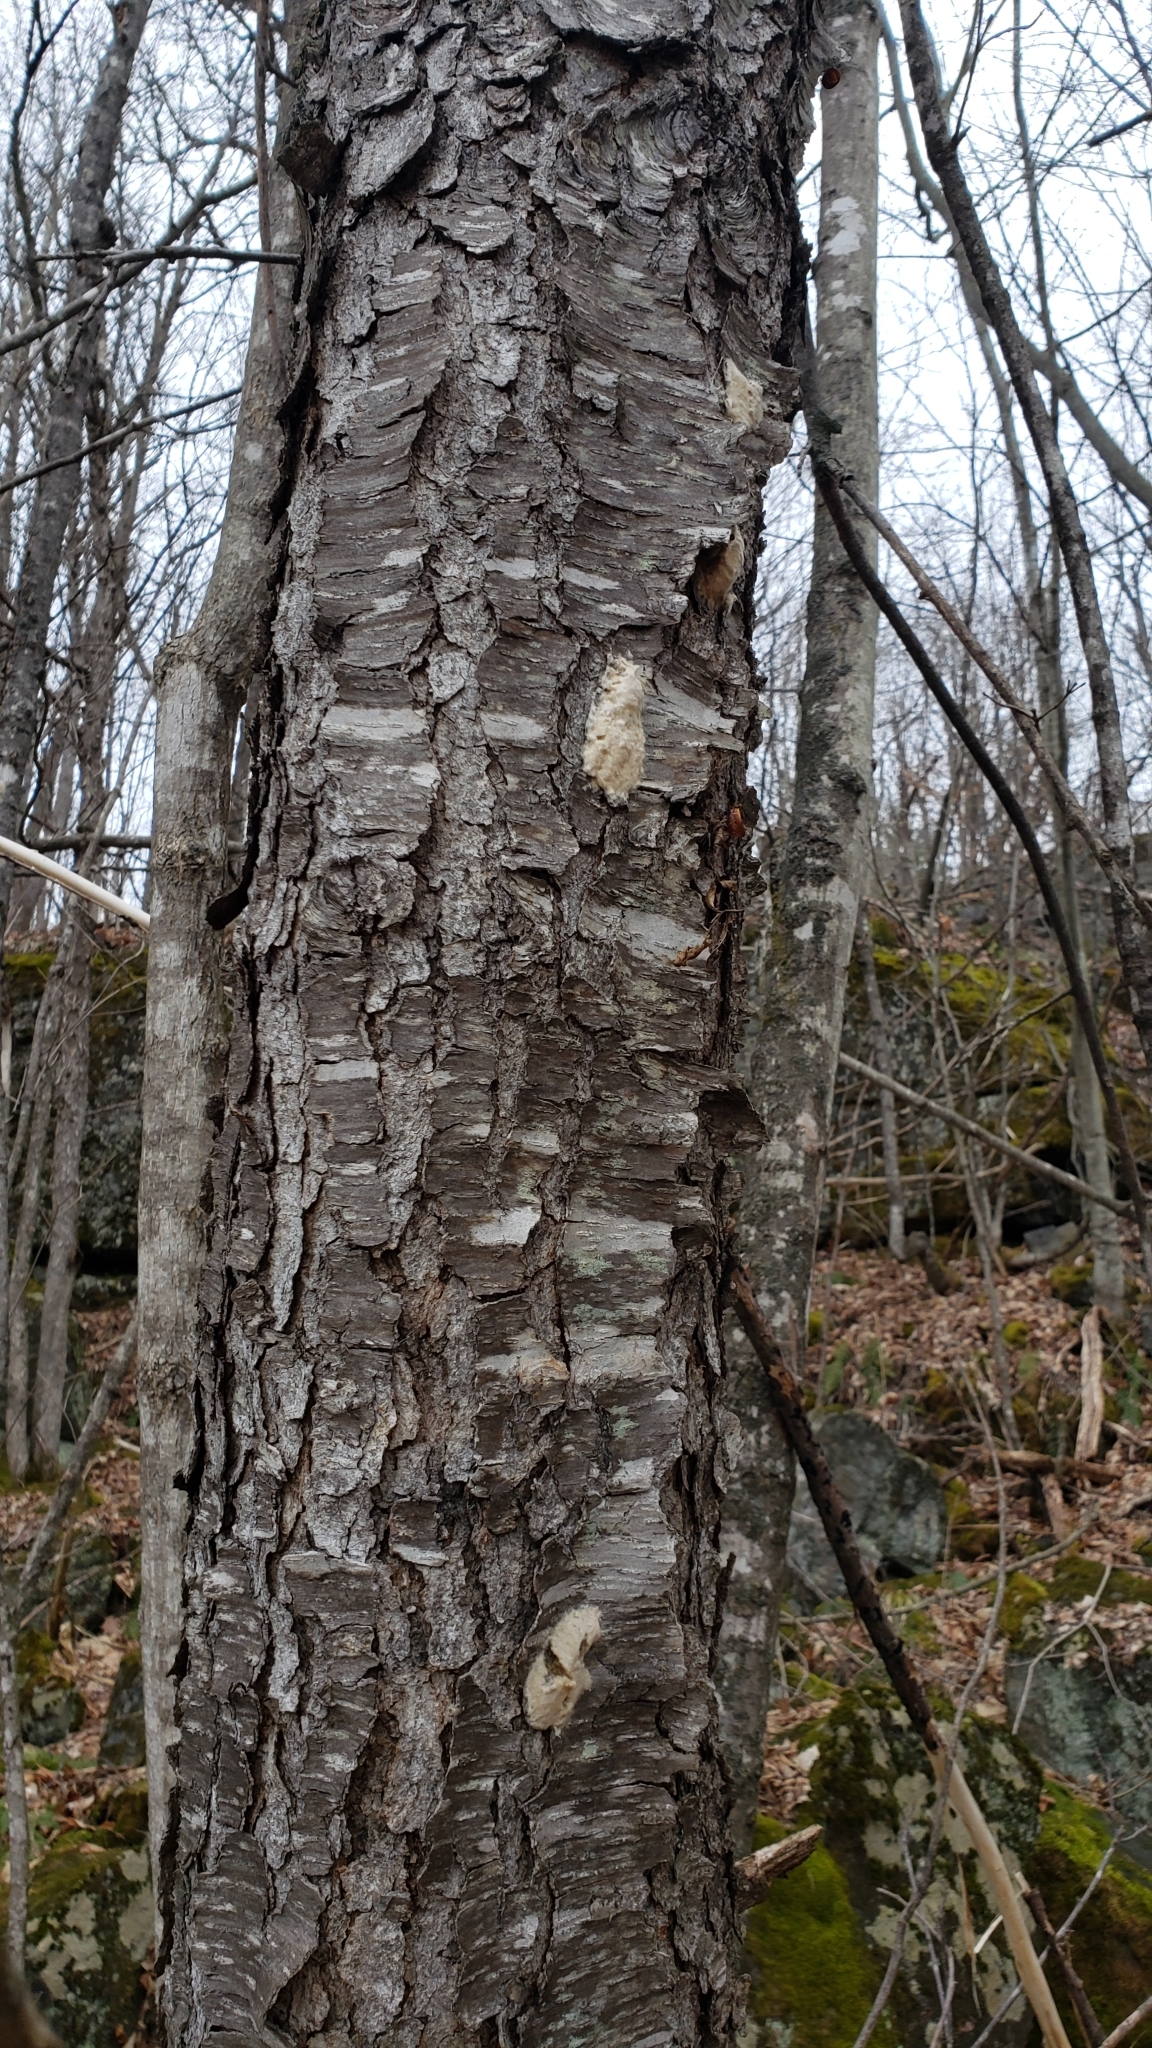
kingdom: Animalia
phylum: Arthropoda
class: Insecta
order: Lepidoptera
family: Erebidae
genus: Lymantria
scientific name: Lymantria dispar
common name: Gypsy moth
